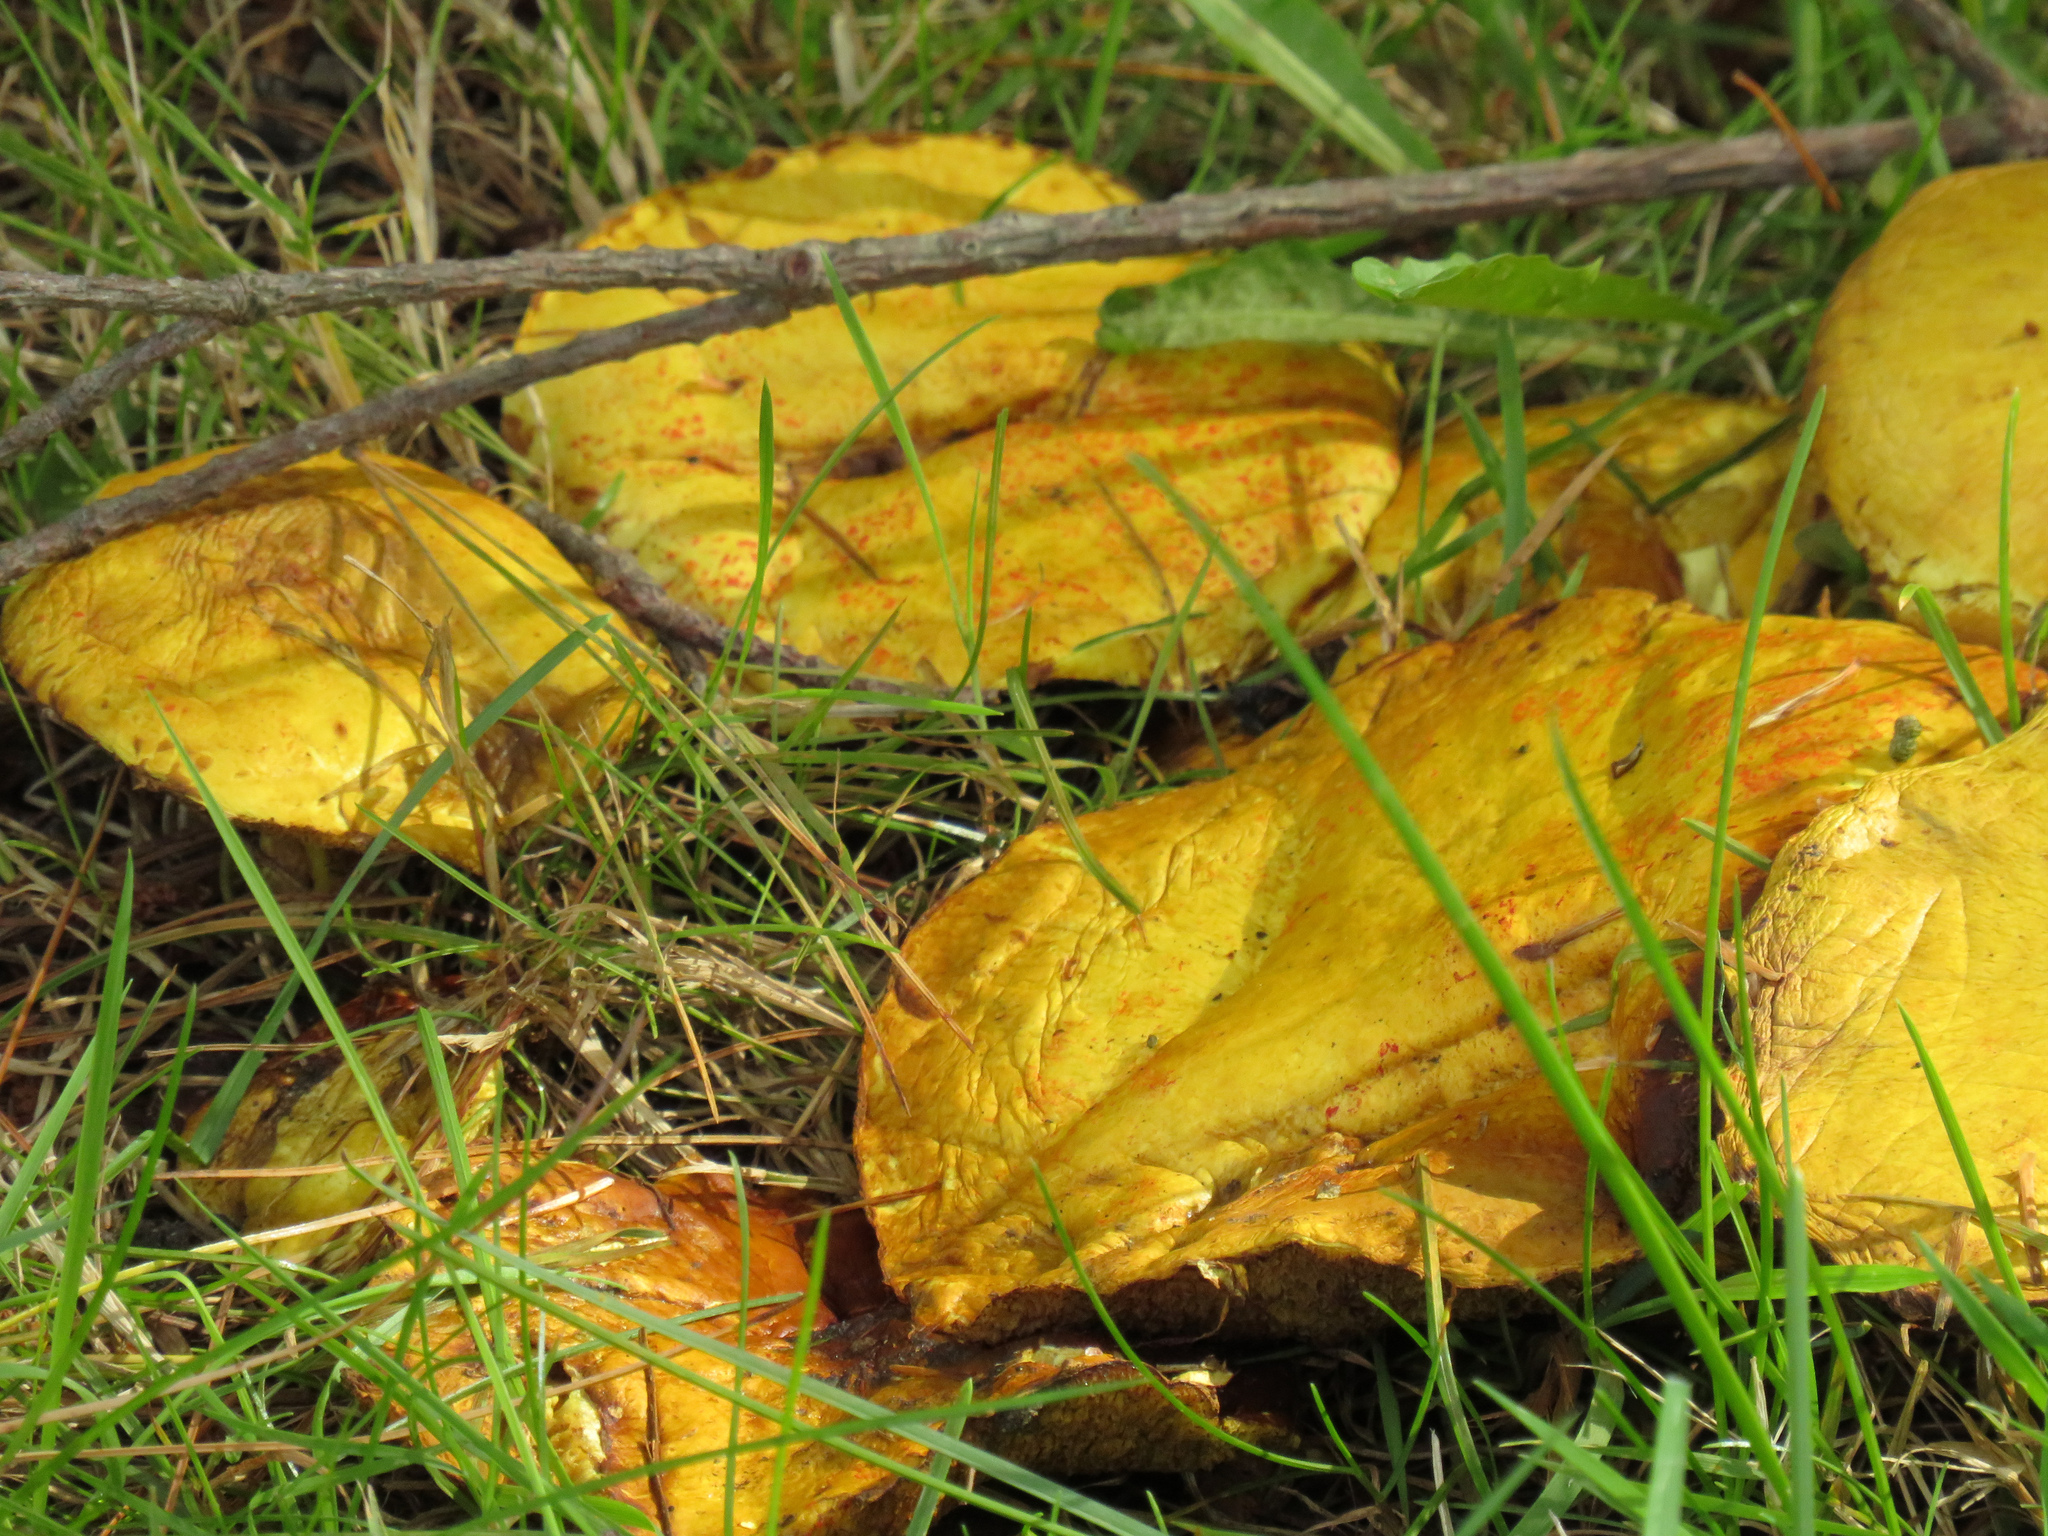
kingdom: Fungi
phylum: Basidiomycota
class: Agaricomycetes
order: Boletales
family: Suillaceae
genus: Suillus
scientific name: Suillus americanus
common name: Chicken fat mushroom
